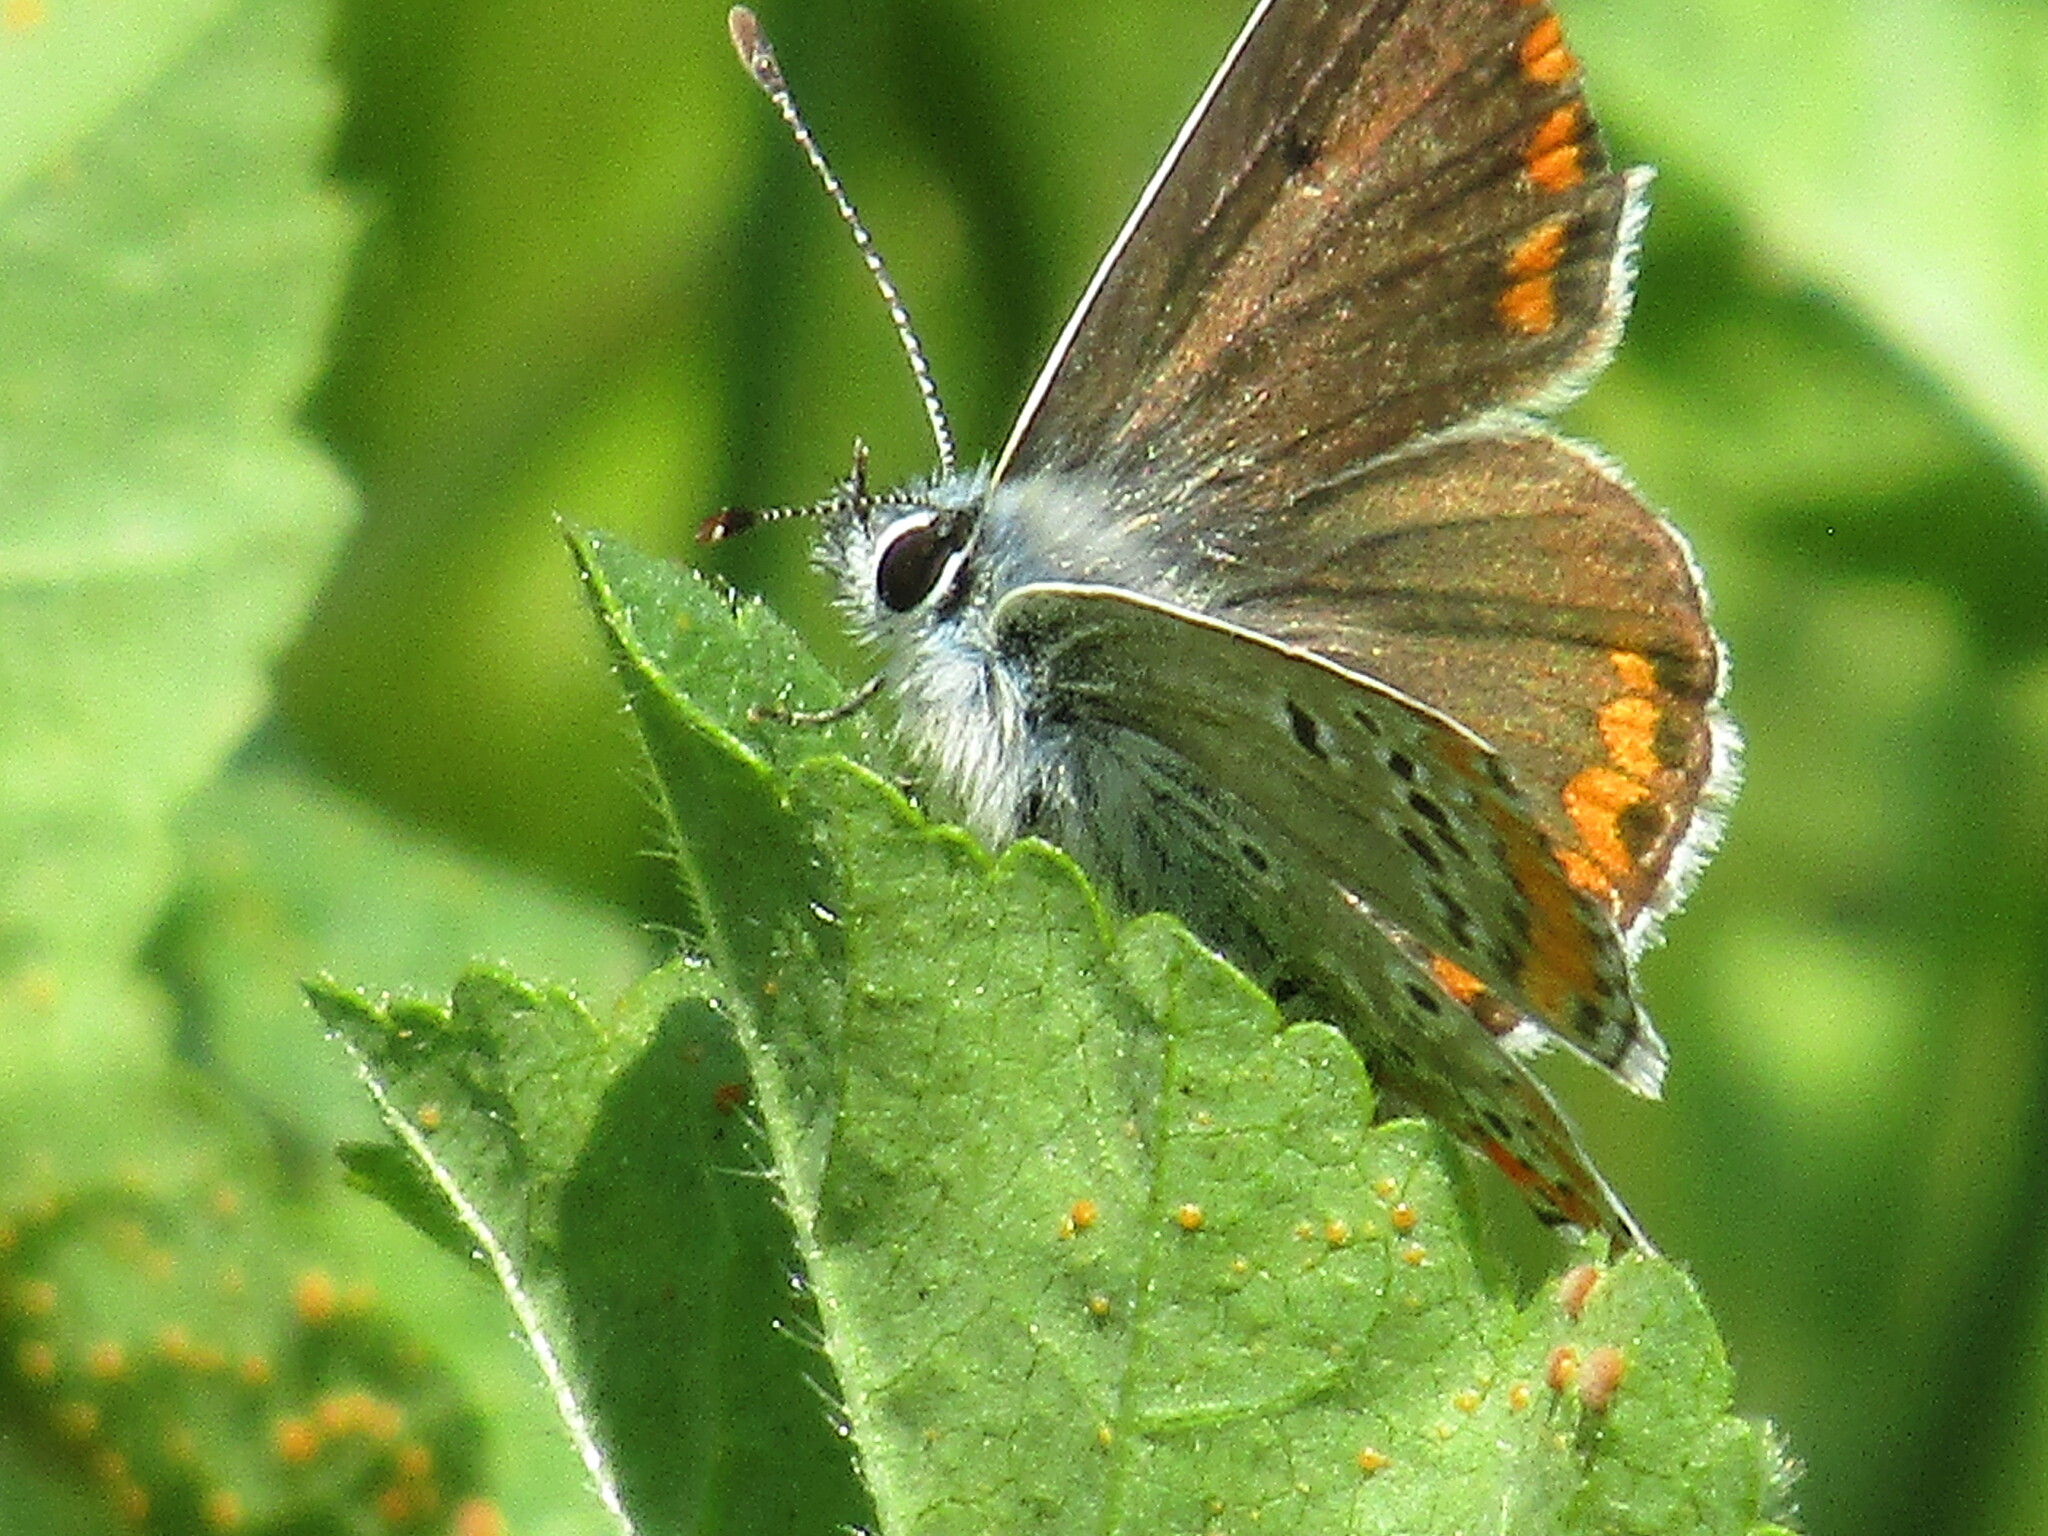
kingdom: Animalia
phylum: Arthropoda
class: Insecta
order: Lepidoptera
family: Lycaenidae
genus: Aricia
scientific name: Aricia agestis
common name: Brown argus
